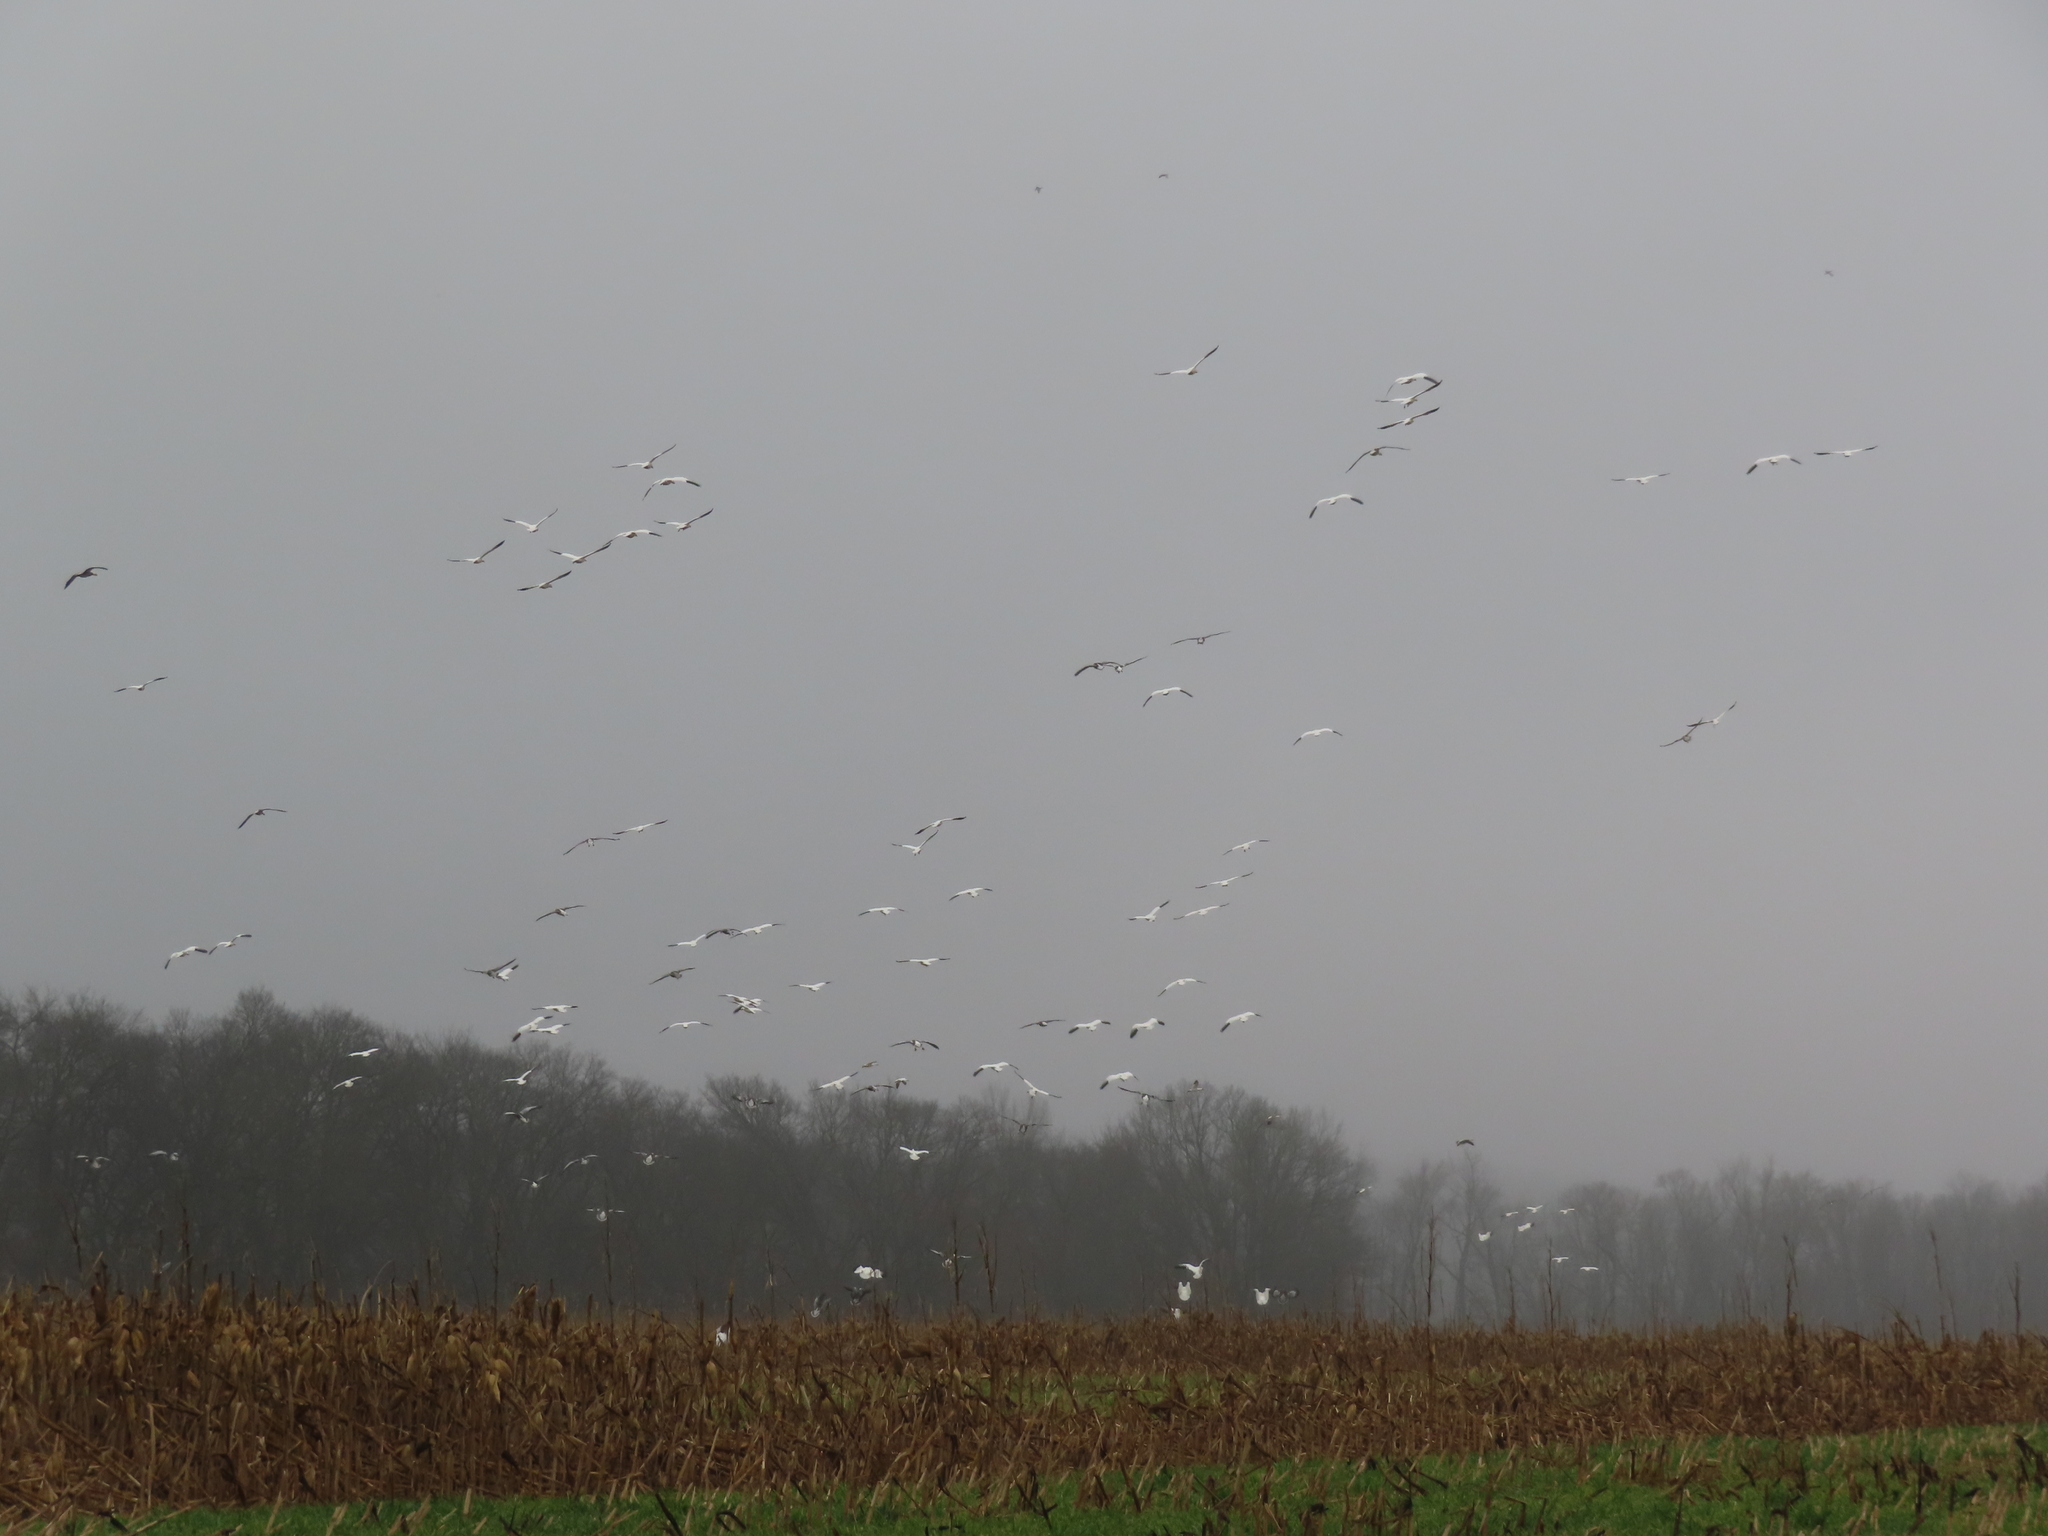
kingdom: Animalia
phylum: Chordata
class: Aves
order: Anseriformes
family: Anatidae
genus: Anser
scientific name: Anser caerulescens
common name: Snow goose
